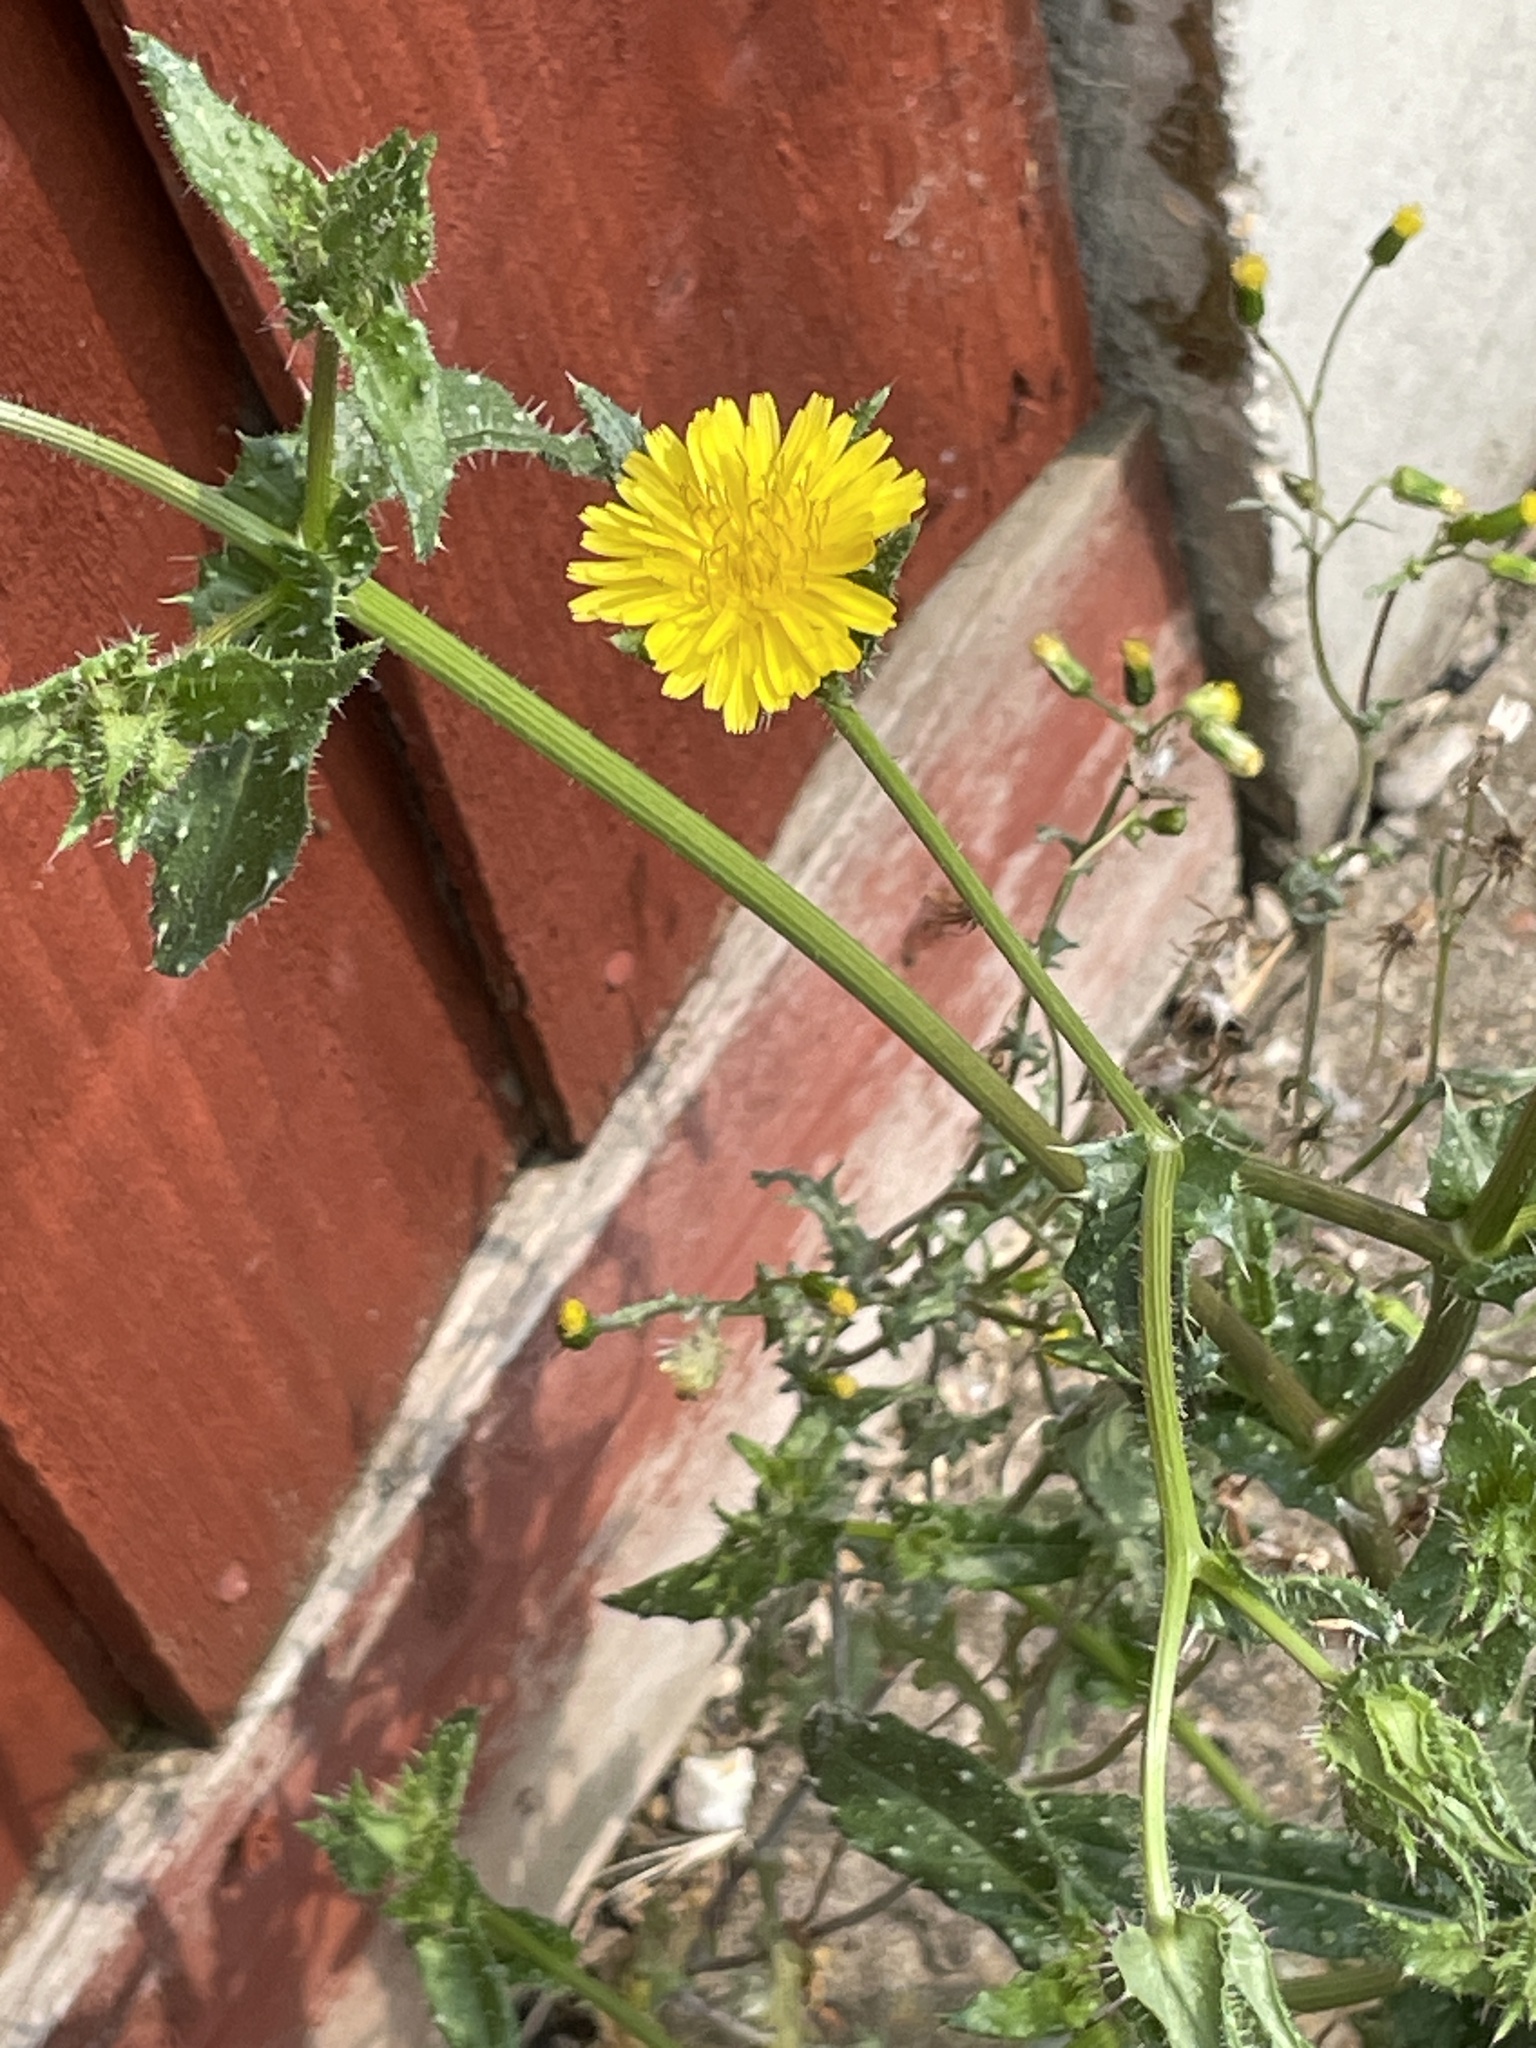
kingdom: Plantae
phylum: Tracheophyta
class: Magnoliopsida
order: Asterales
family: Asteraceae
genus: Helminthotheca
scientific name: Helminthotheca echioides
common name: Ox-tongue
